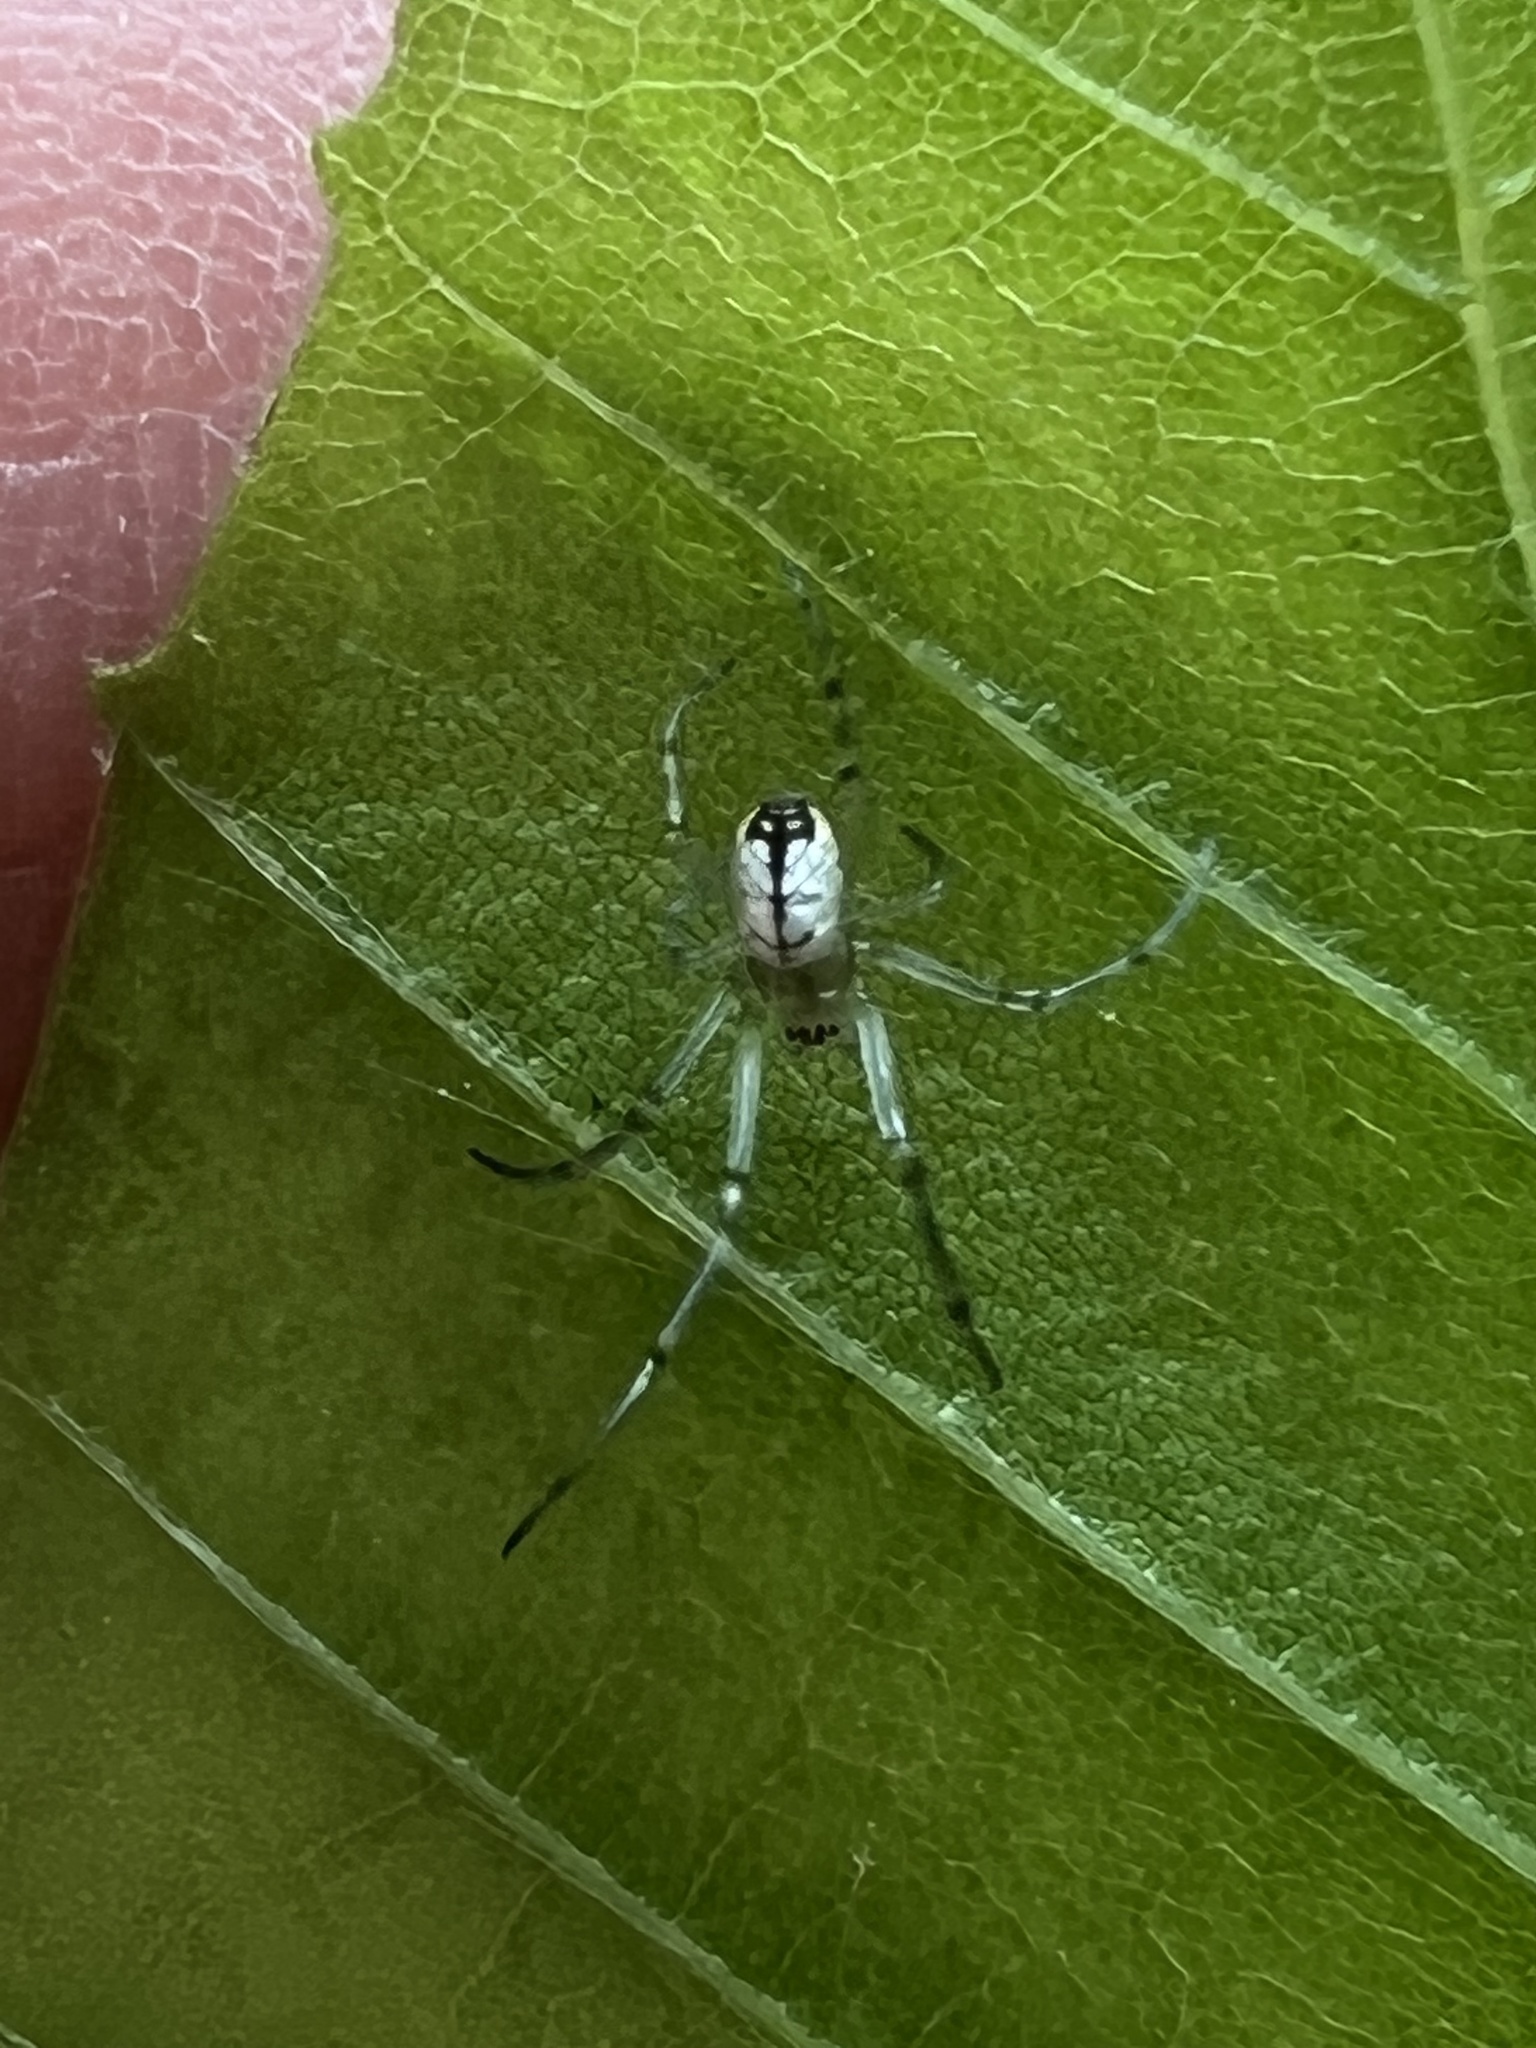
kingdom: Animalia
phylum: Arthropoda
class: Arachnida
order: Araneae
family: Tetragnathidae
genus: Leucauge
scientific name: Leucauge venusta
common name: Longjawed orb weavers
